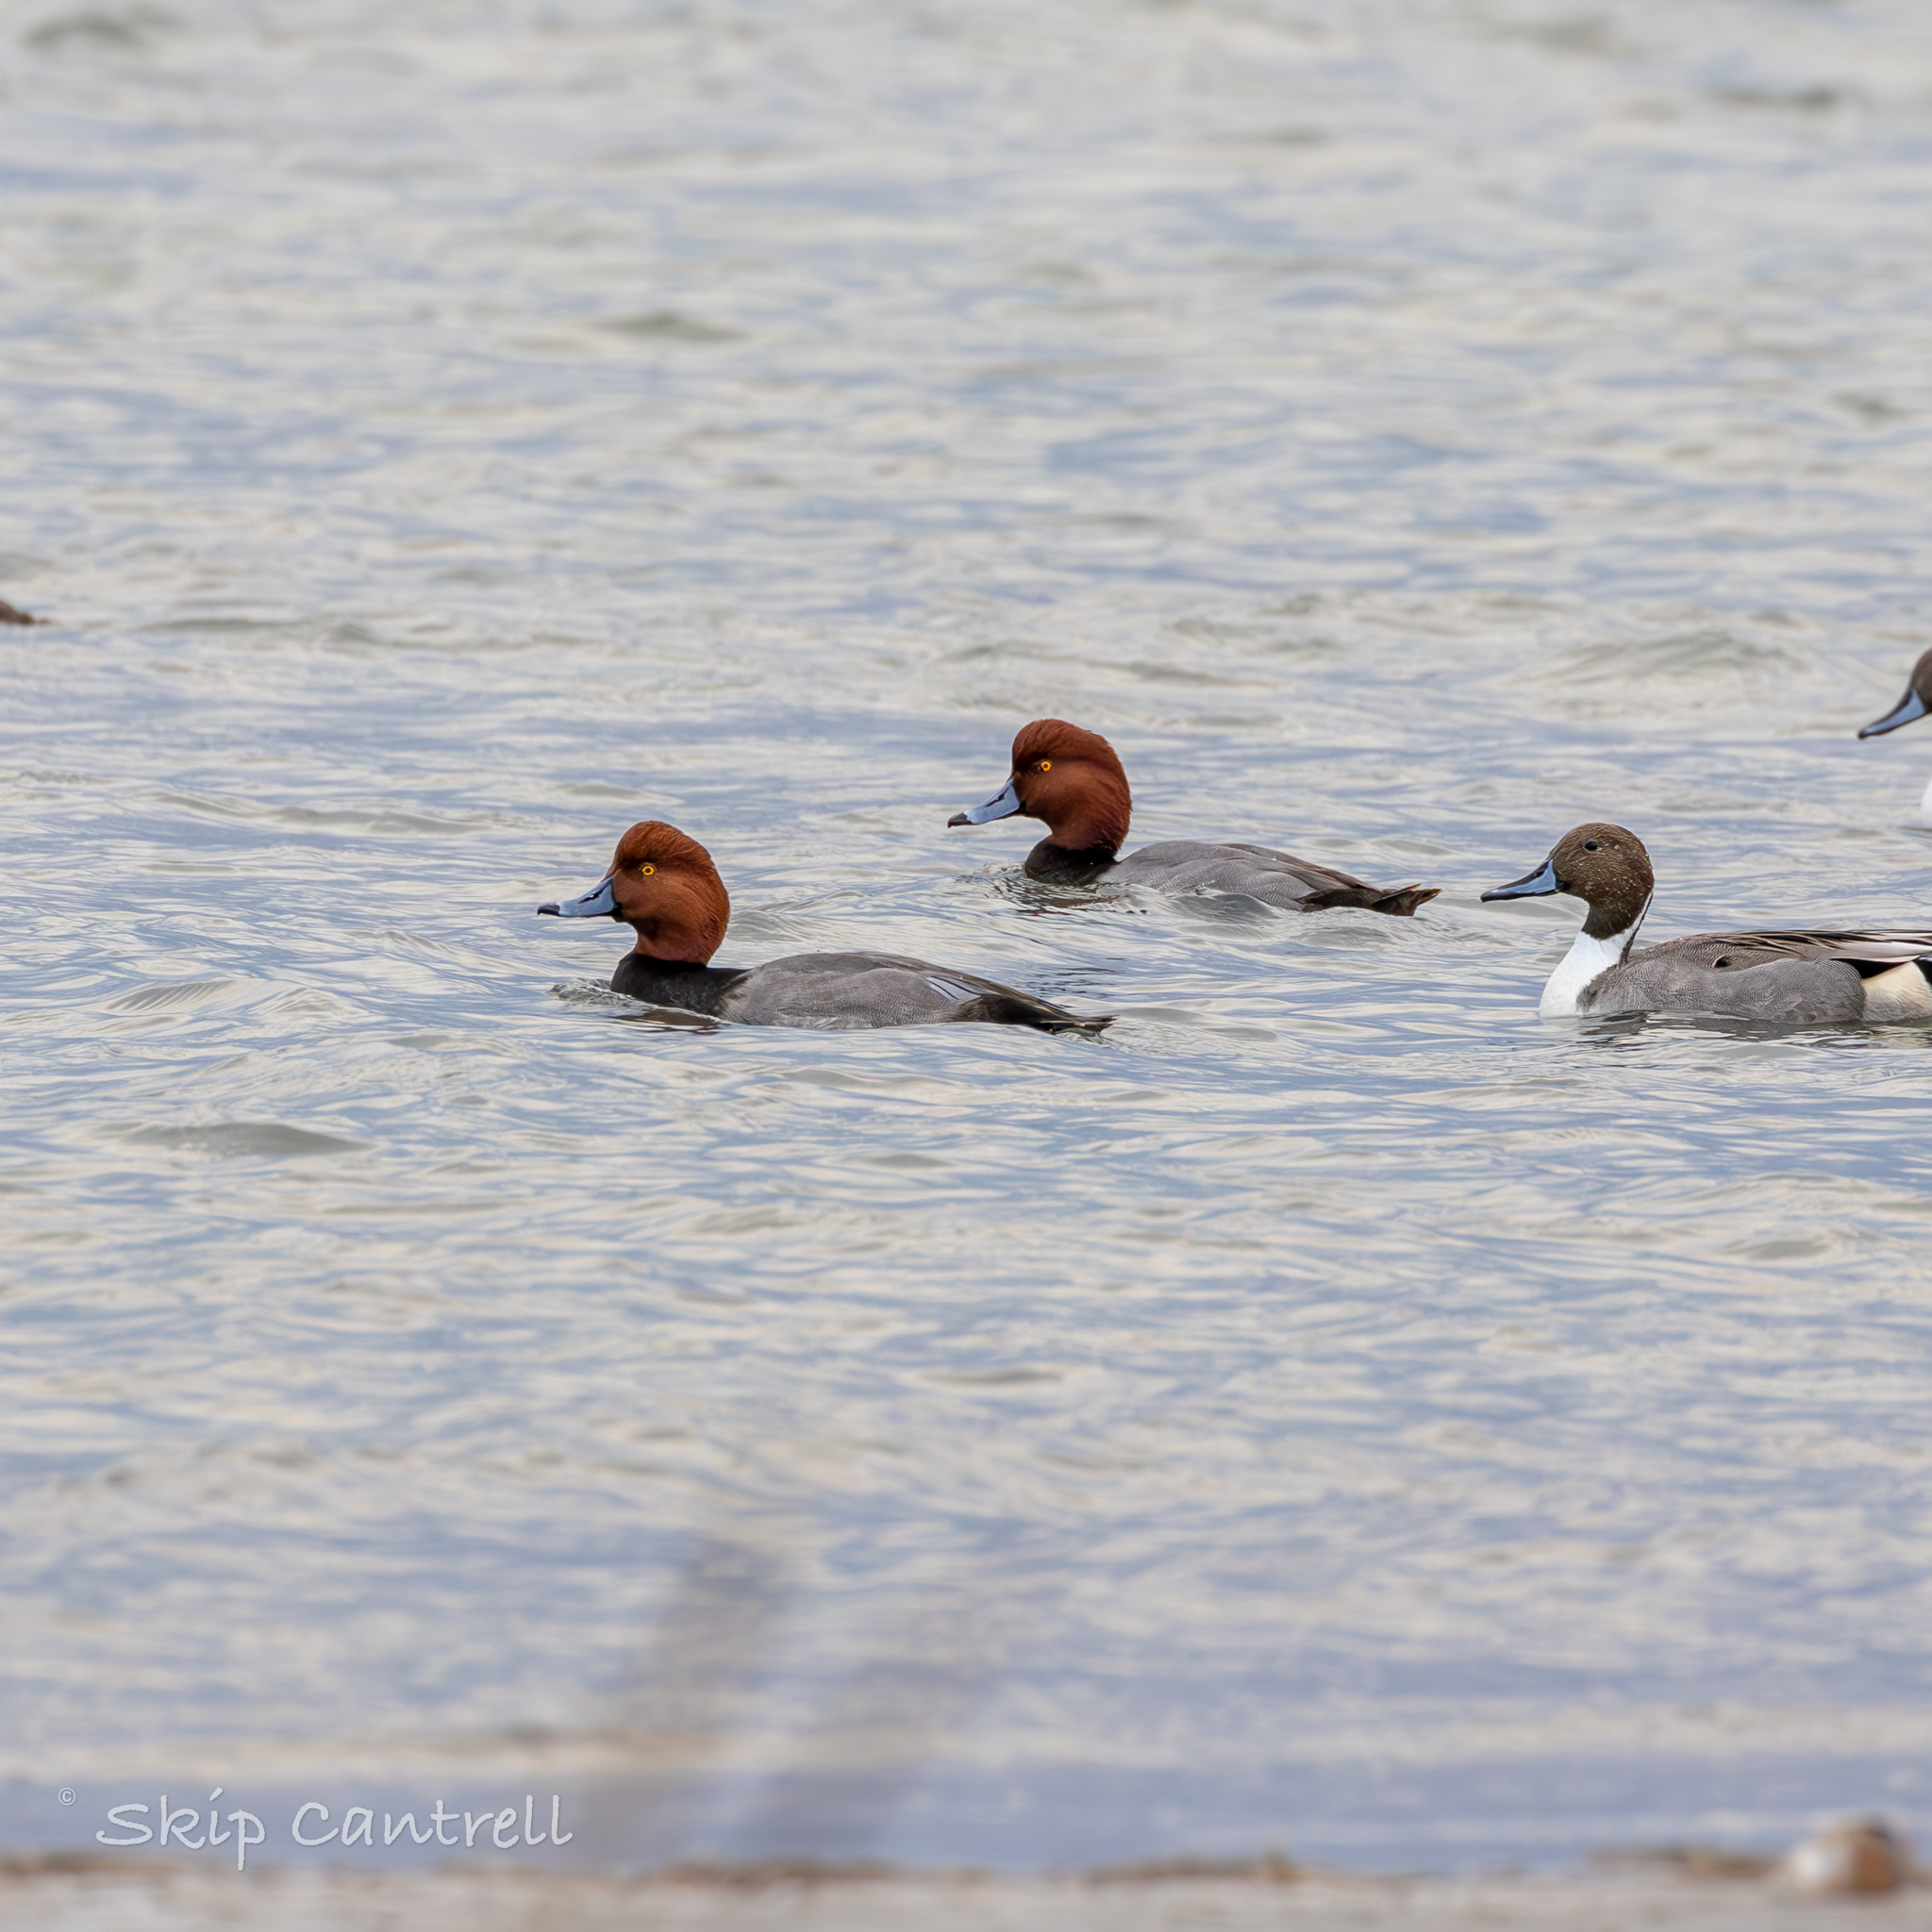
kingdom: Animalia
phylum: Chordata
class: Aves
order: Anseriformes
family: Anatidae
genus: Aythya
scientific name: Aythya americana
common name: Redhead
